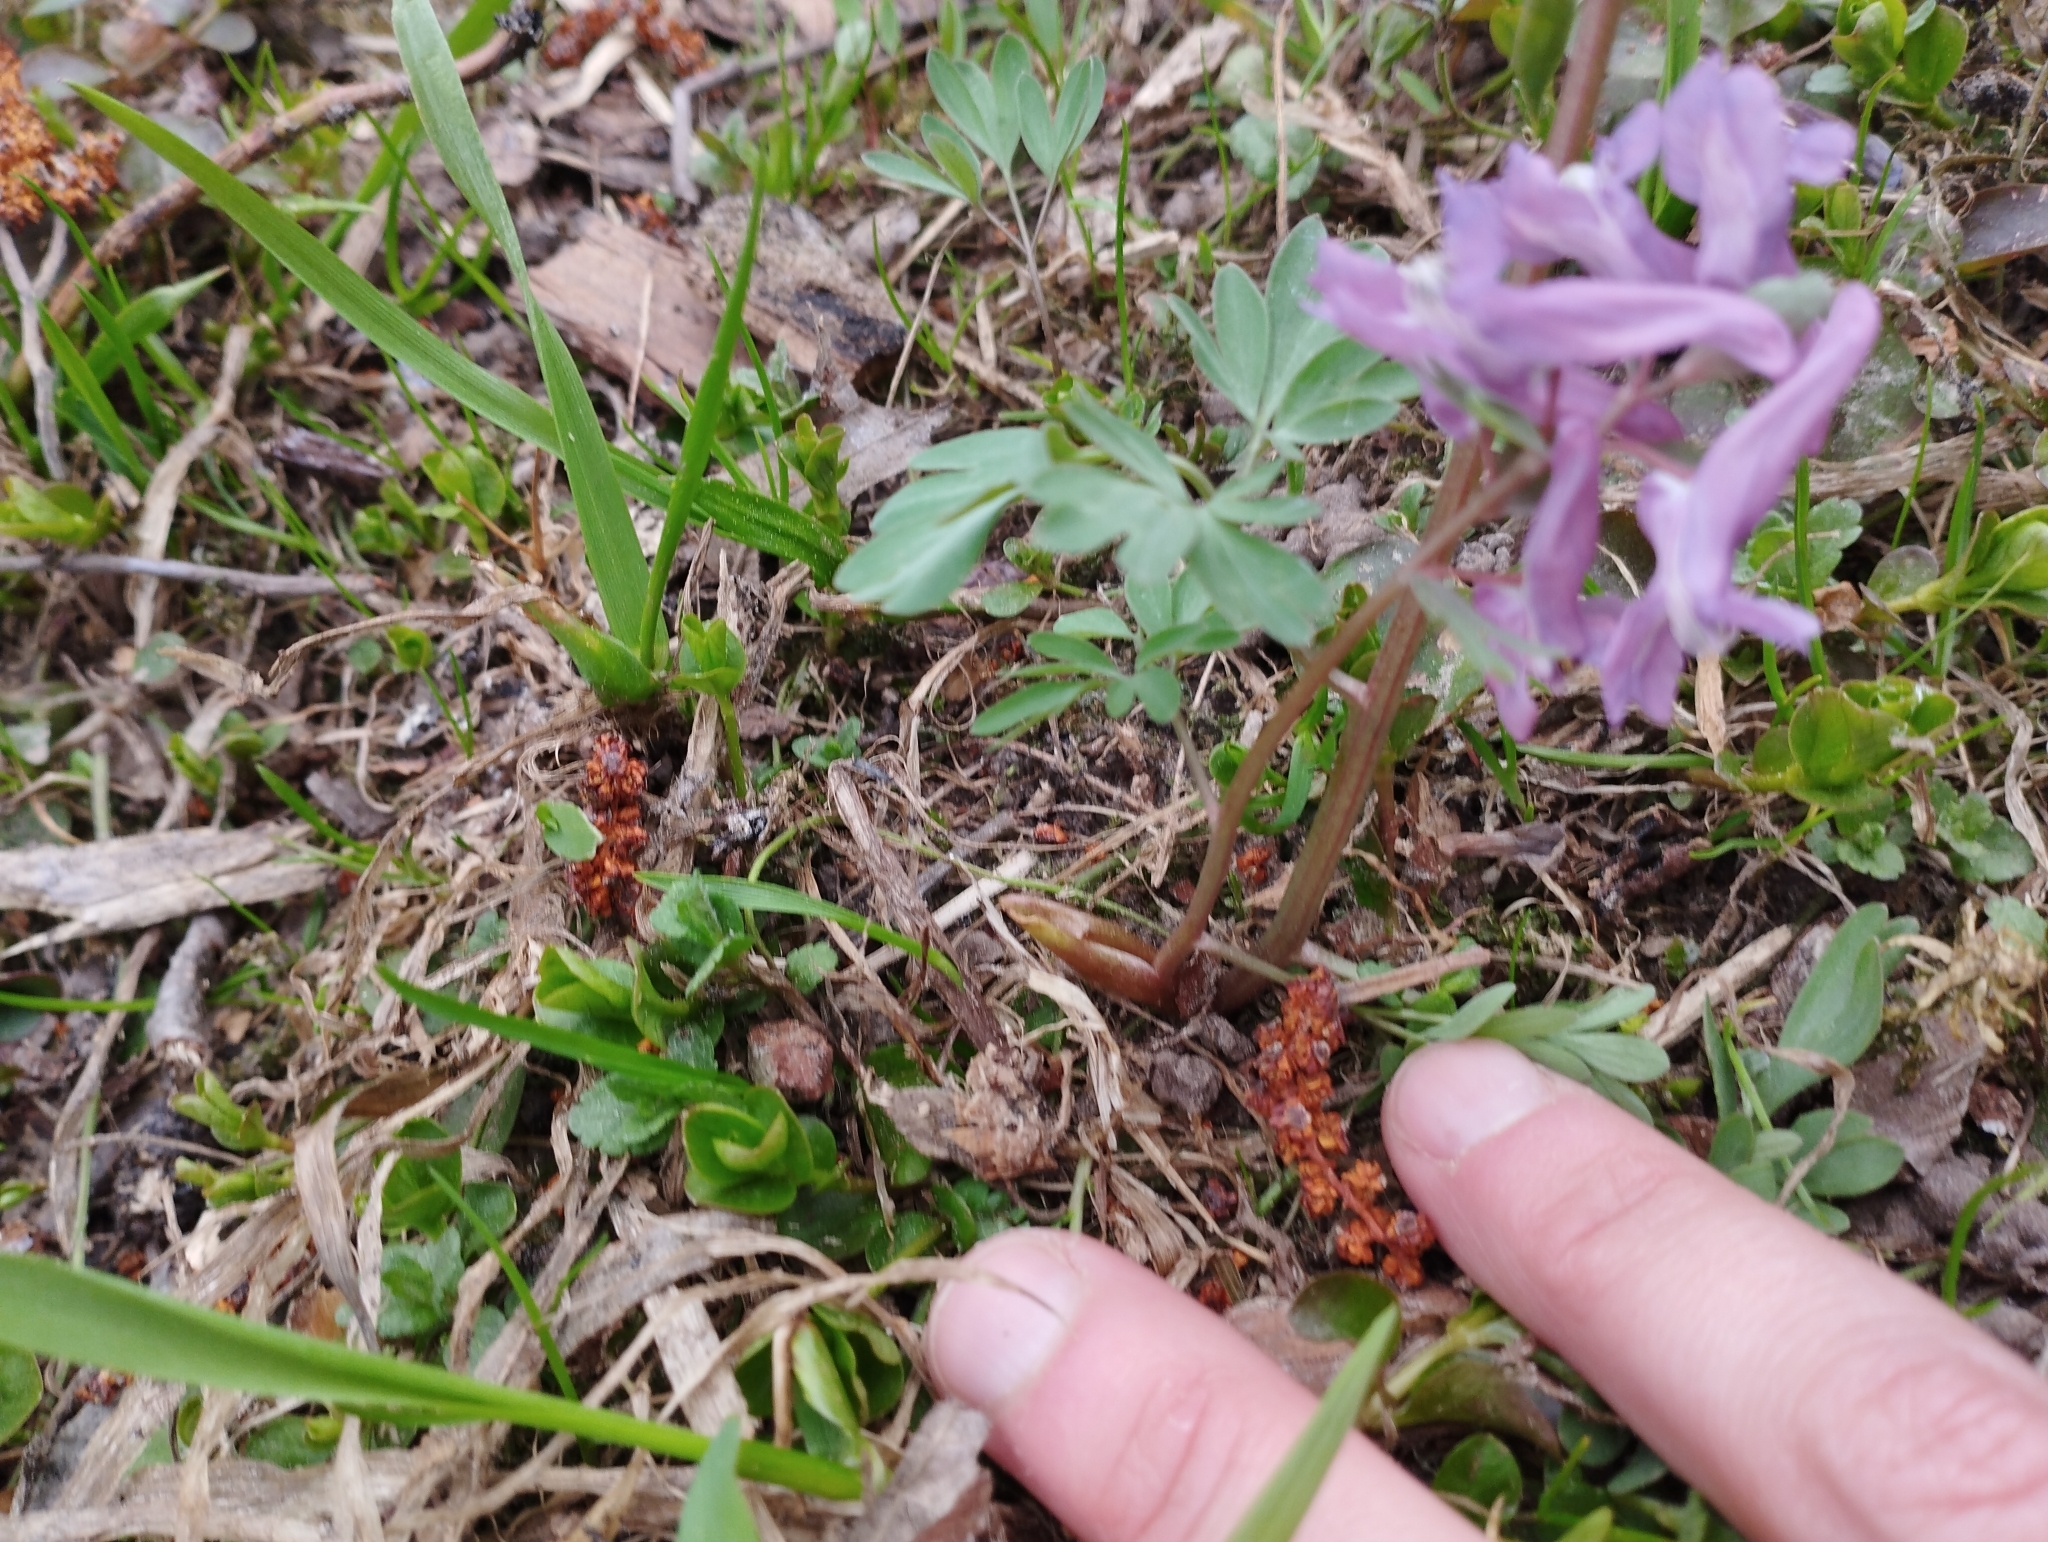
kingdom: Plantae
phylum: Tracheophyta
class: Magnoliopsida
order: Ranunculales
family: Papaveraceae
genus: Corydalis
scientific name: Corydalis solida
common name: Bird-in-a-bush
